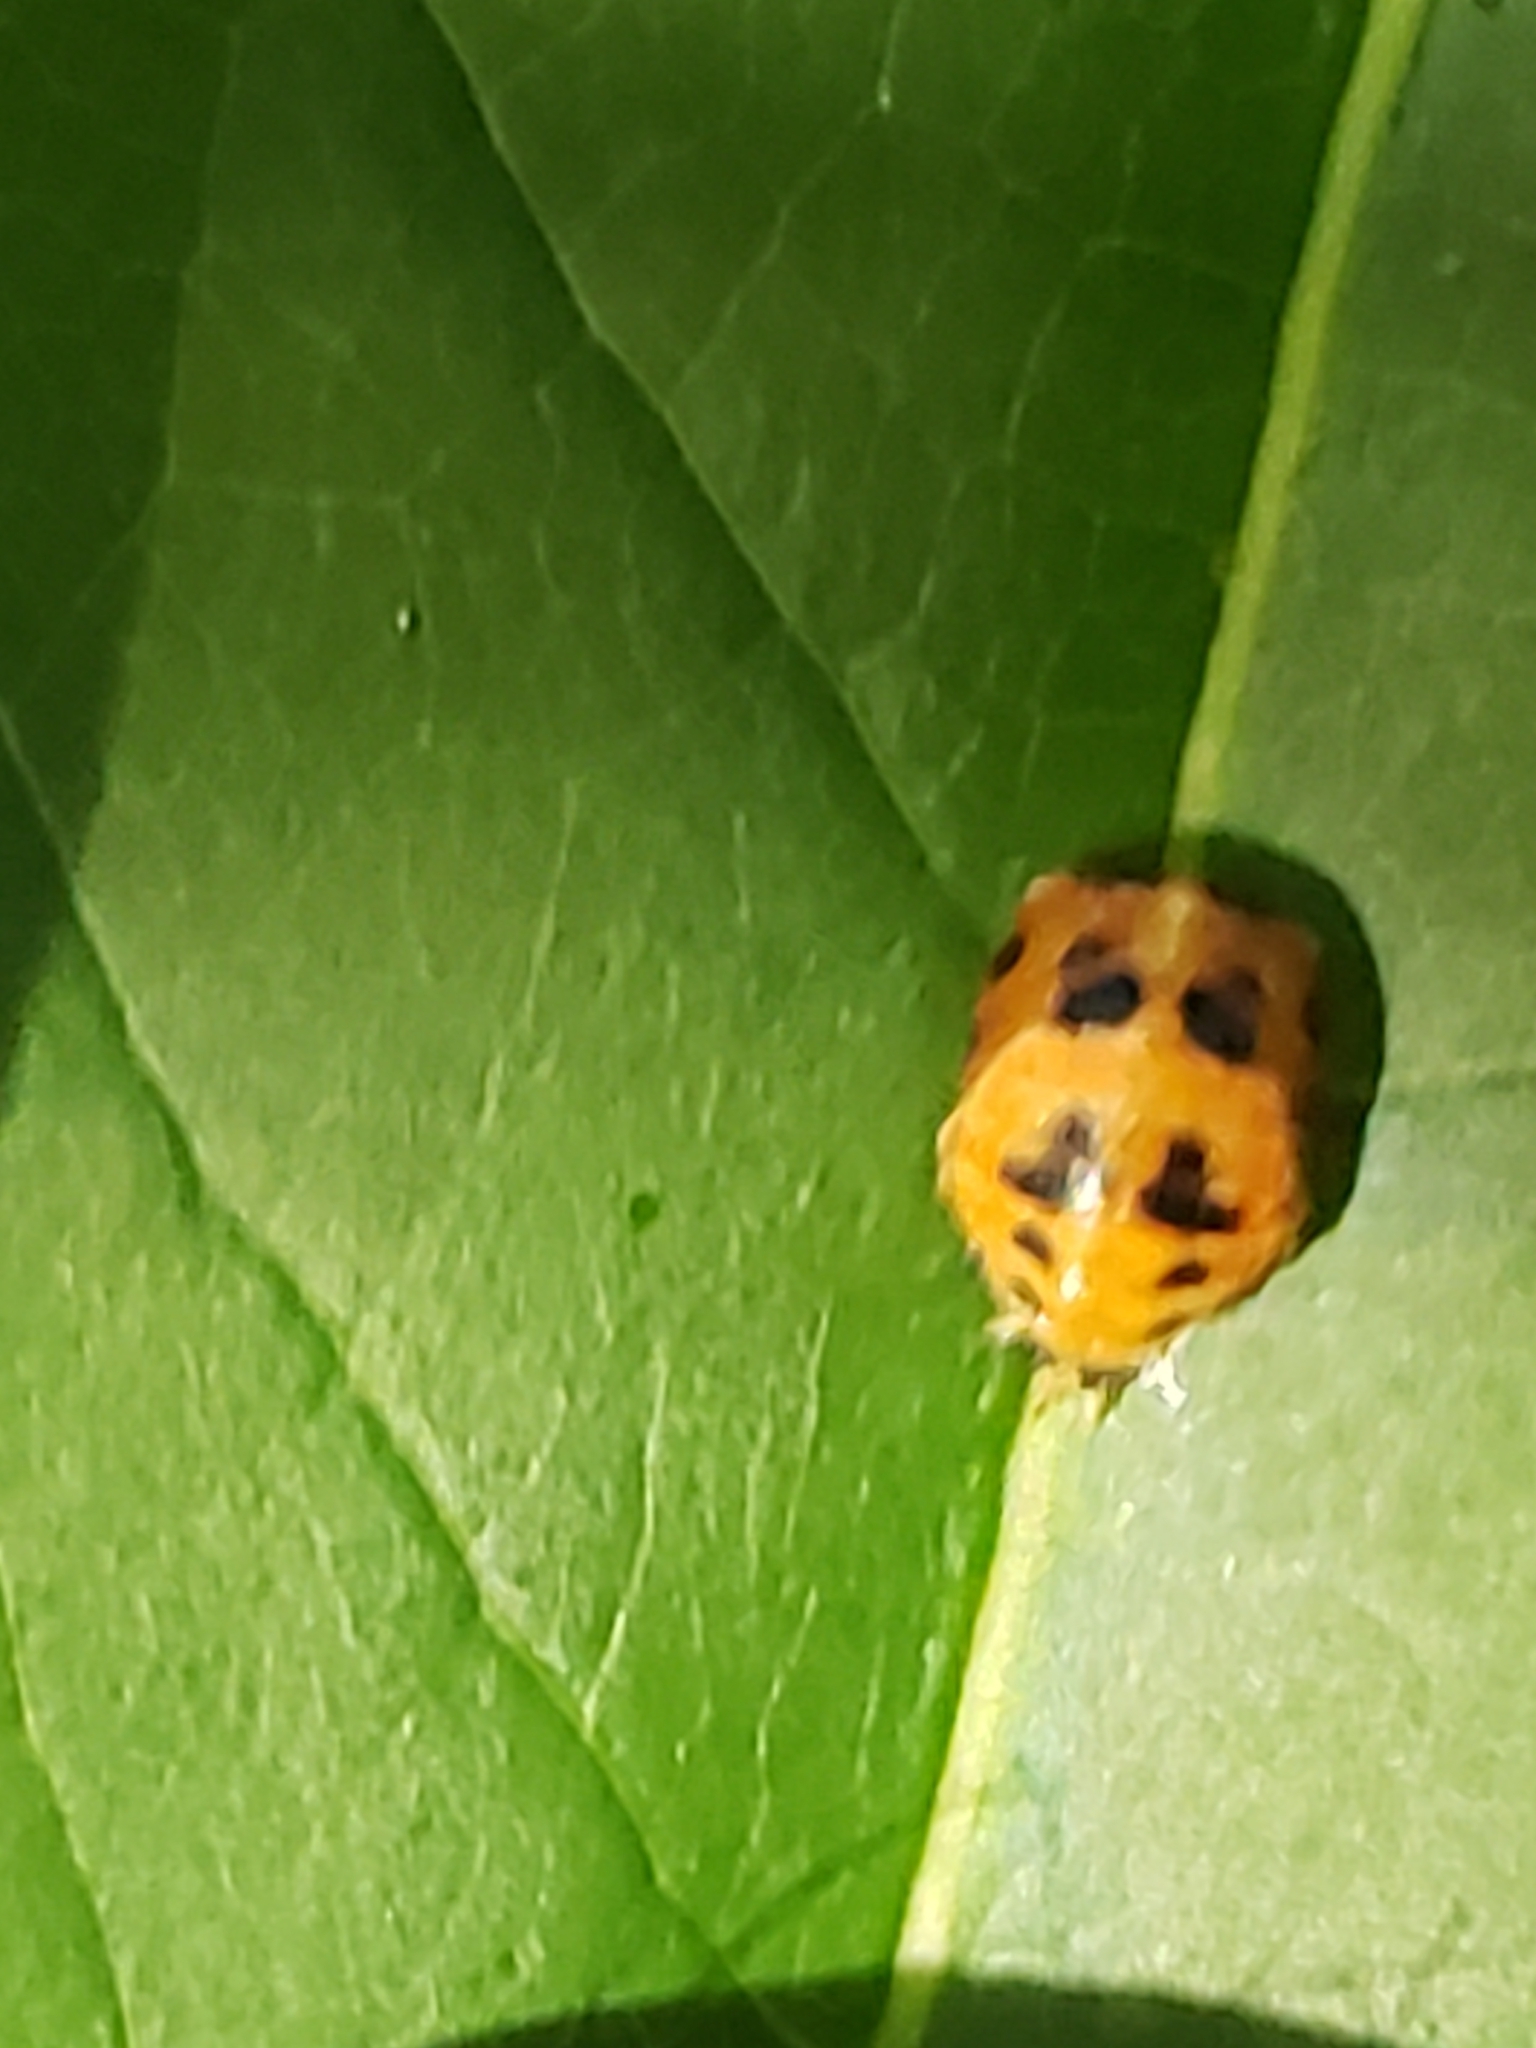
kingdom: Animalia
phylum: Arthropoda
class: Insecta
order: Coleoptera
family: Coccinellidae
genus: Harmonia
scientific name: Harmonia axyridis
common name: Harlequin ladybird
